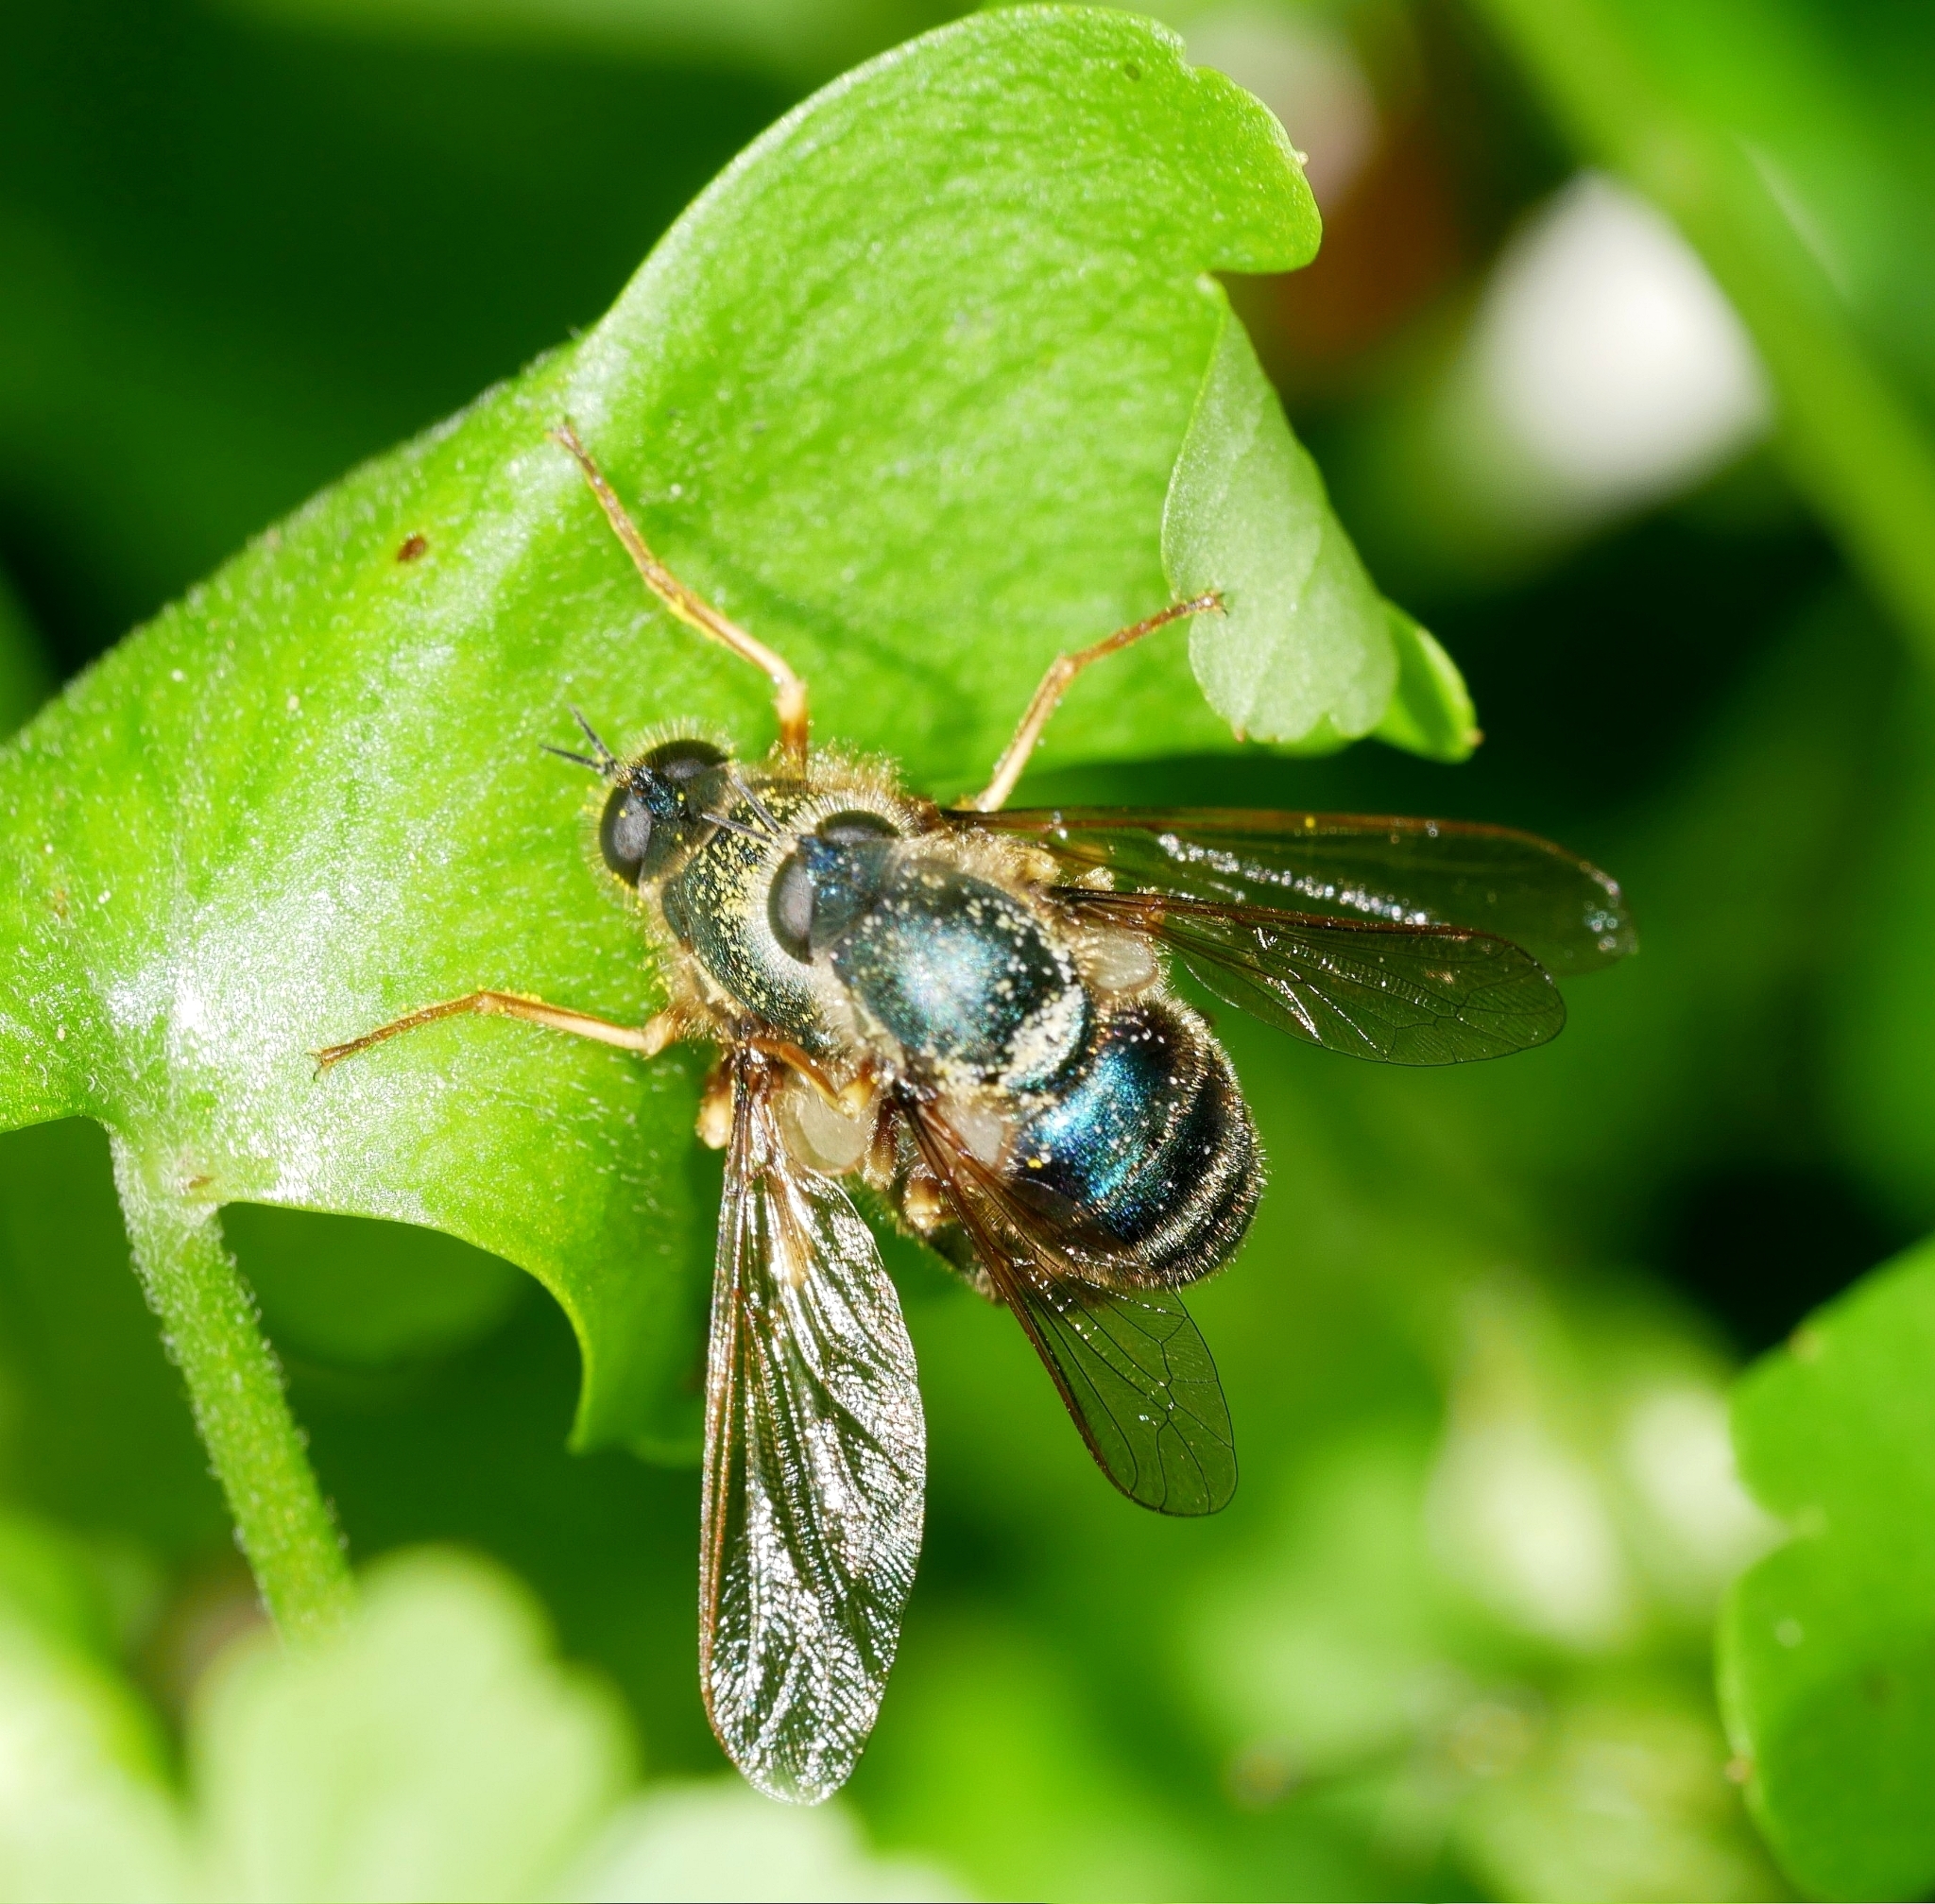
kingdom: Animalia
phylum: Arthropoda
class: Insecta
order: Diptera
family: Acroceridae
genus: Eulonchus
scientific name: Eulonchus tristis
